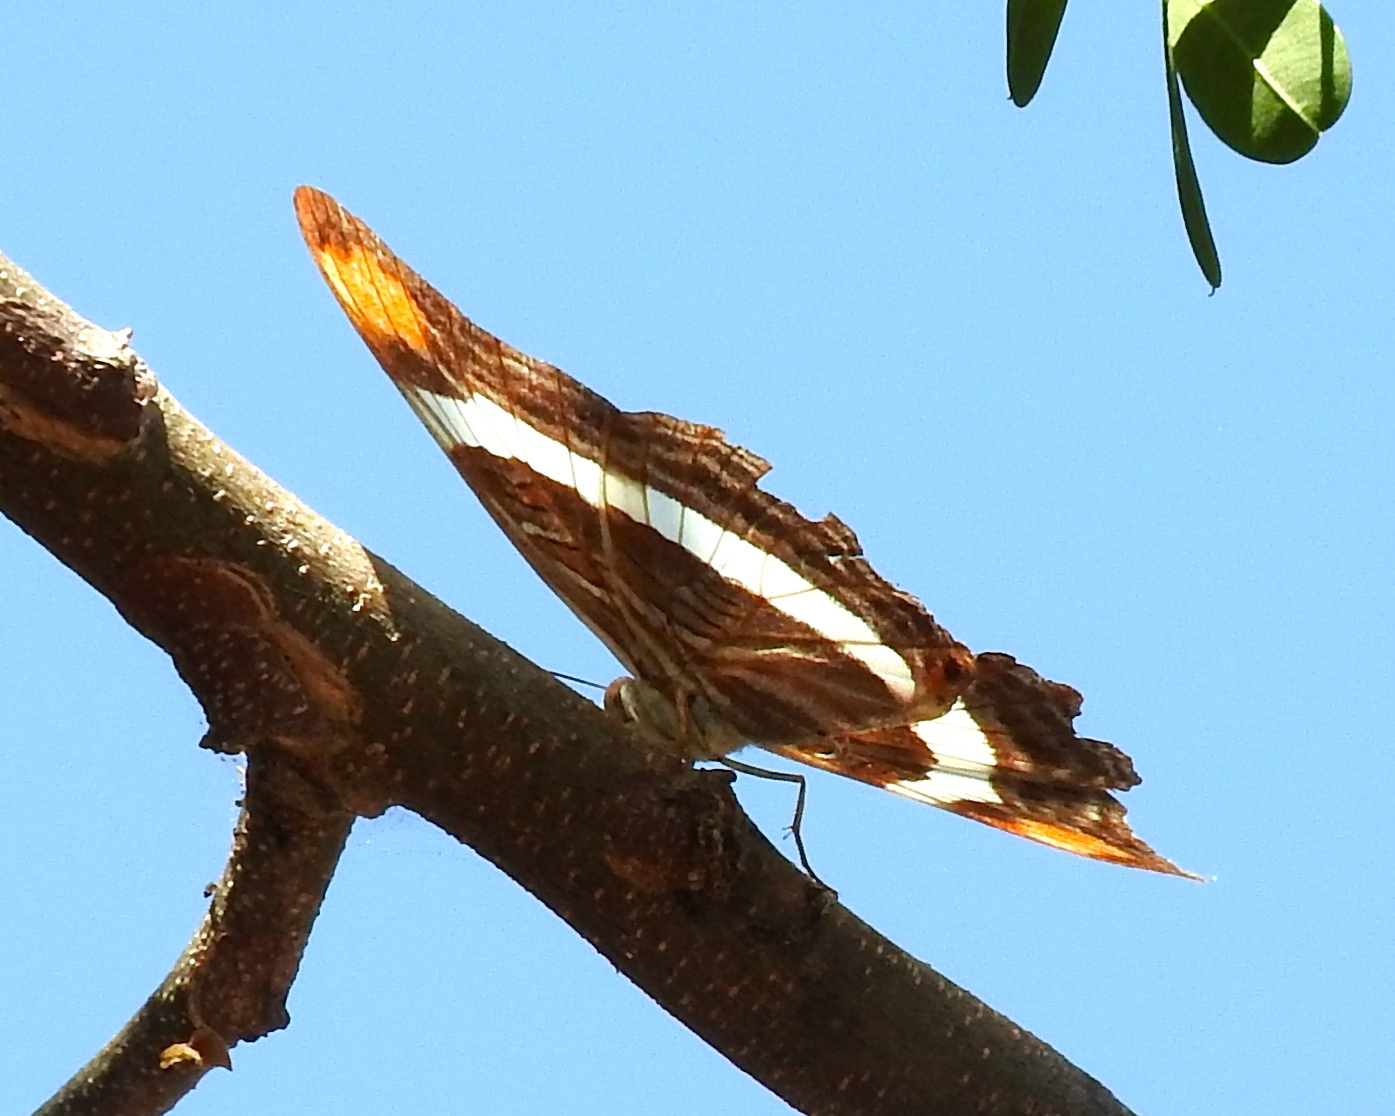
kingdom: Animalia
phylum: Arthropoda
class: Insecta
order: Lepidoptera
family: Nymphalidae
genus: Limenitis
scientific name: Limenitis fessonia
